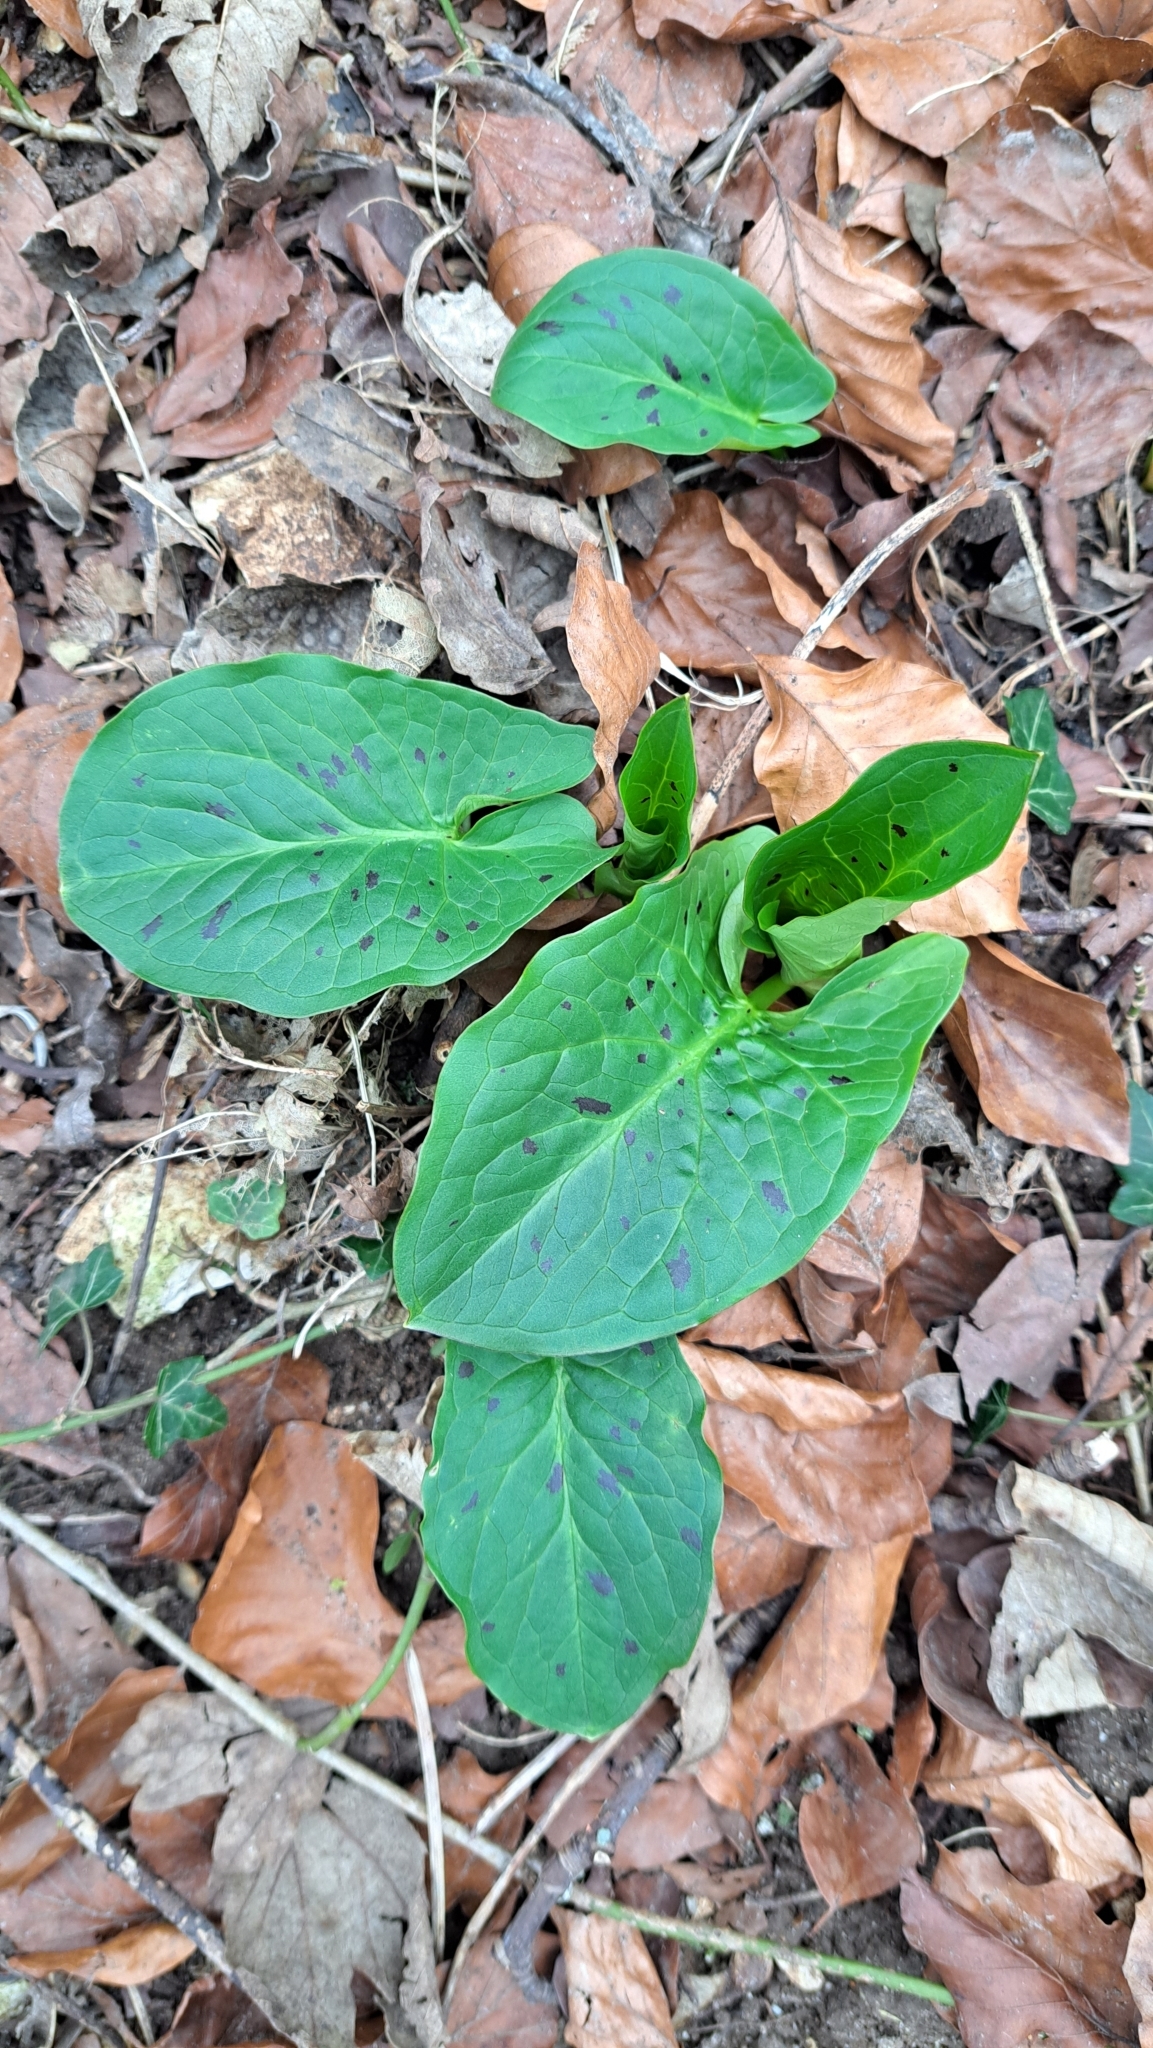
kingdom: Plantae
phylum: Tracheophyta
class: Liliopsida
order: Alismatales
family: Araceae
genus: Arum
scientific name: Arum maculatum
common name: Lords-and-ladies
